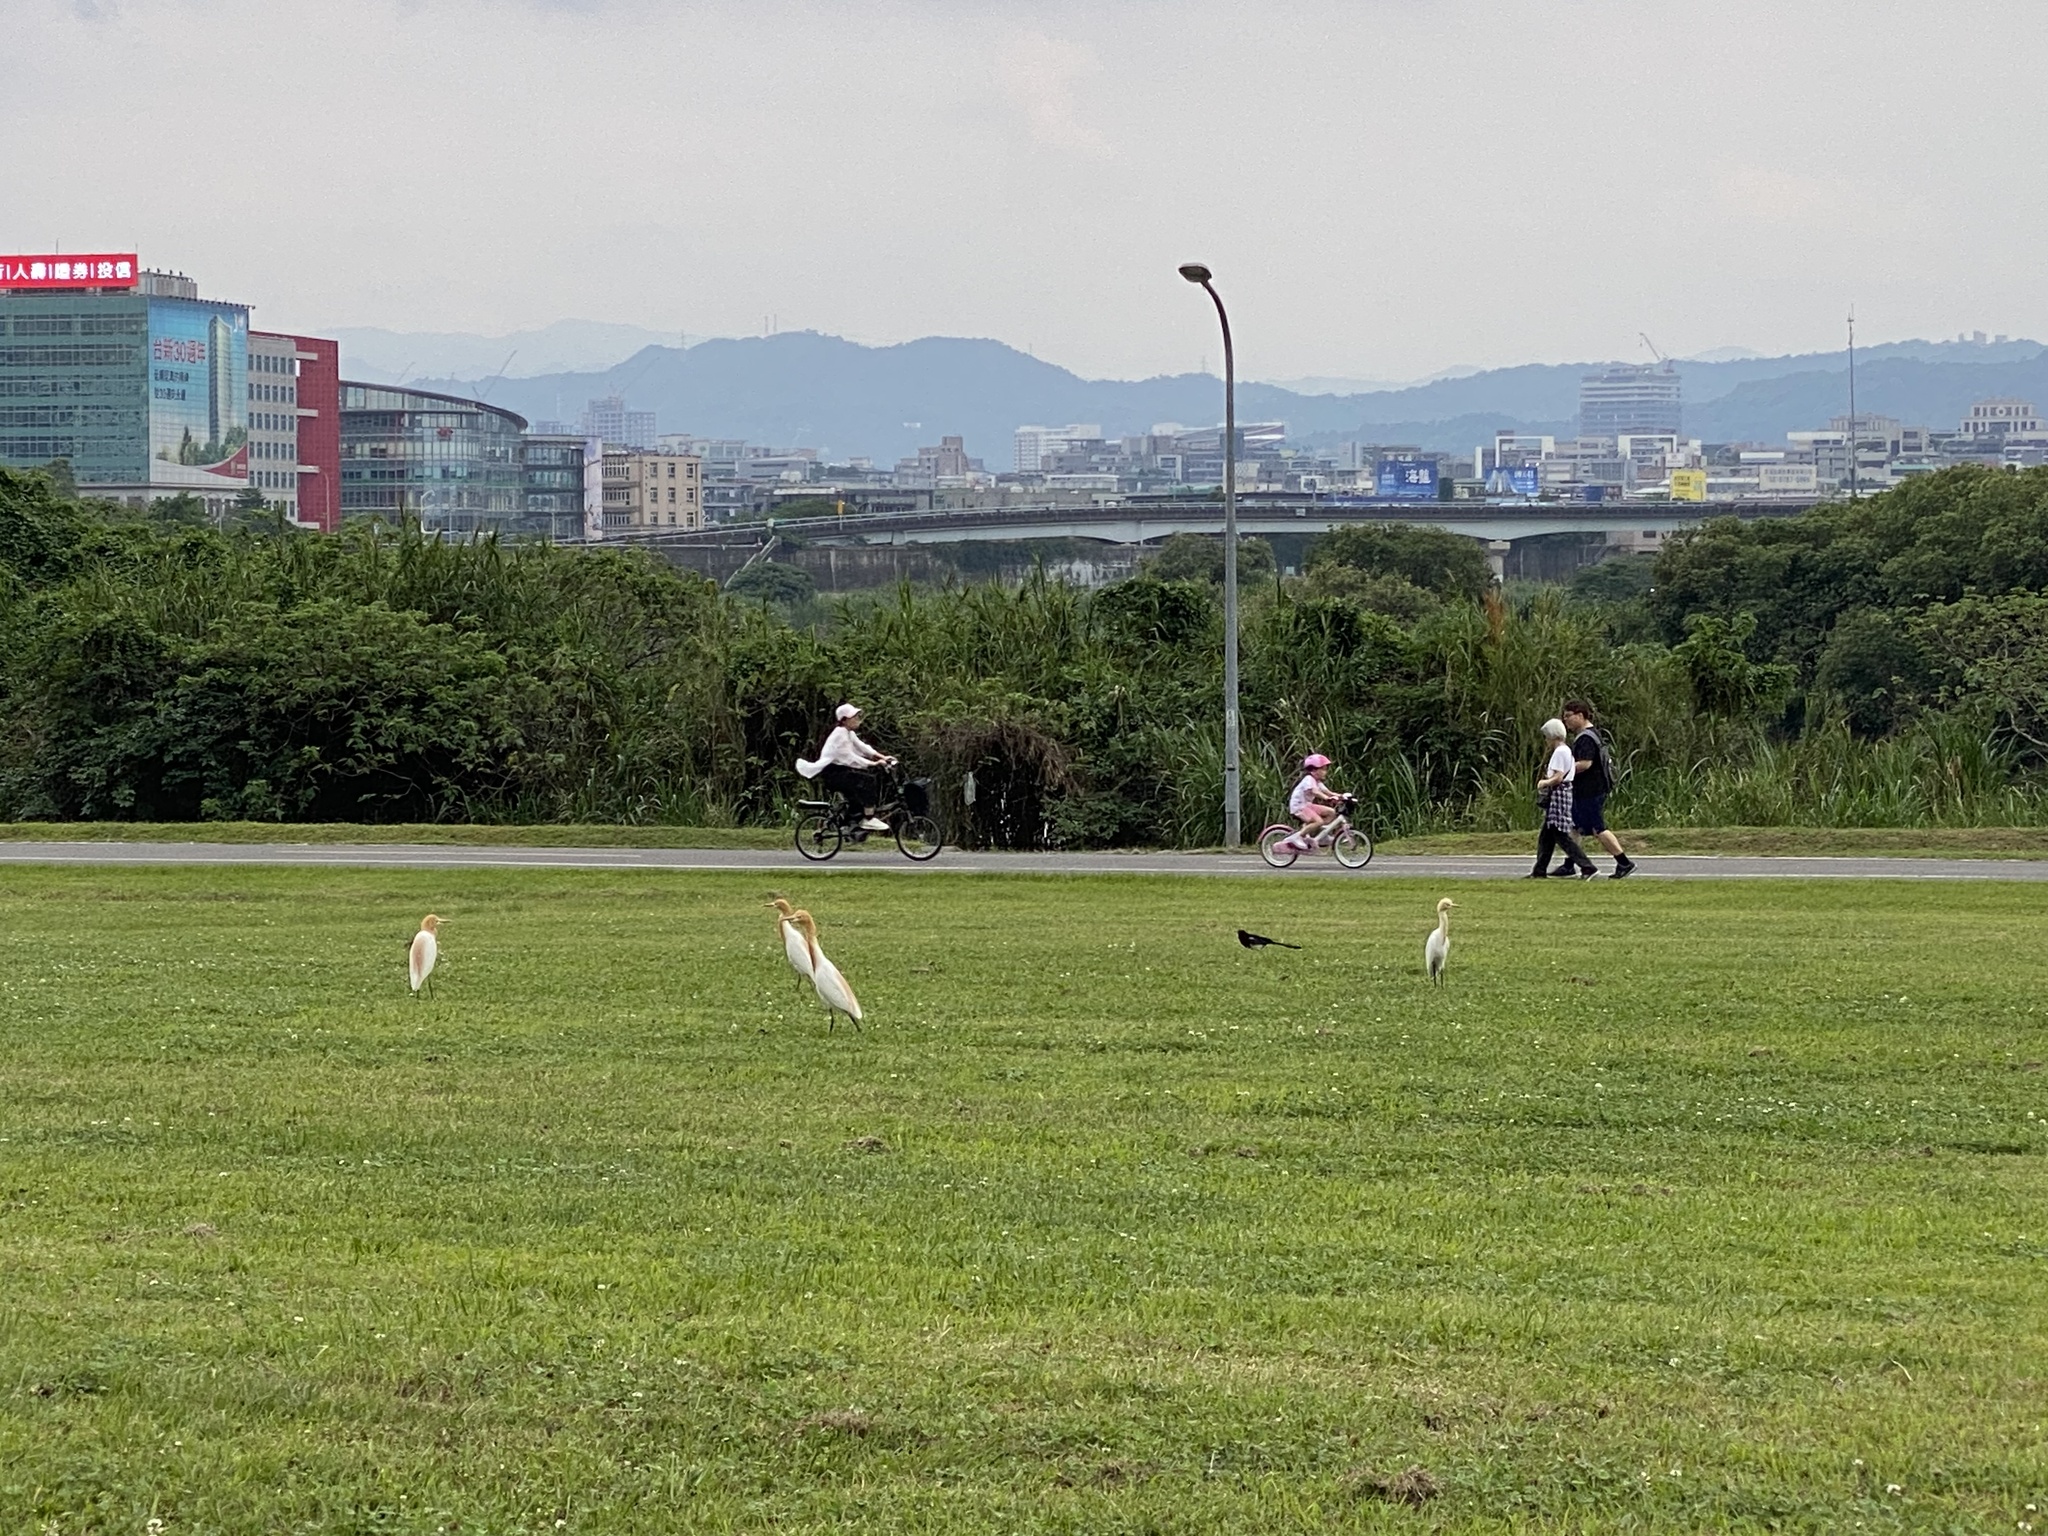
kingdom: Animalia
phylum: Chordata
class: Aves
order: Pelecaniformes
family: Ardeidae
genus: Bubulcus
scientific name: Bubulcus coromandus
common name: Eastern cattle egret
